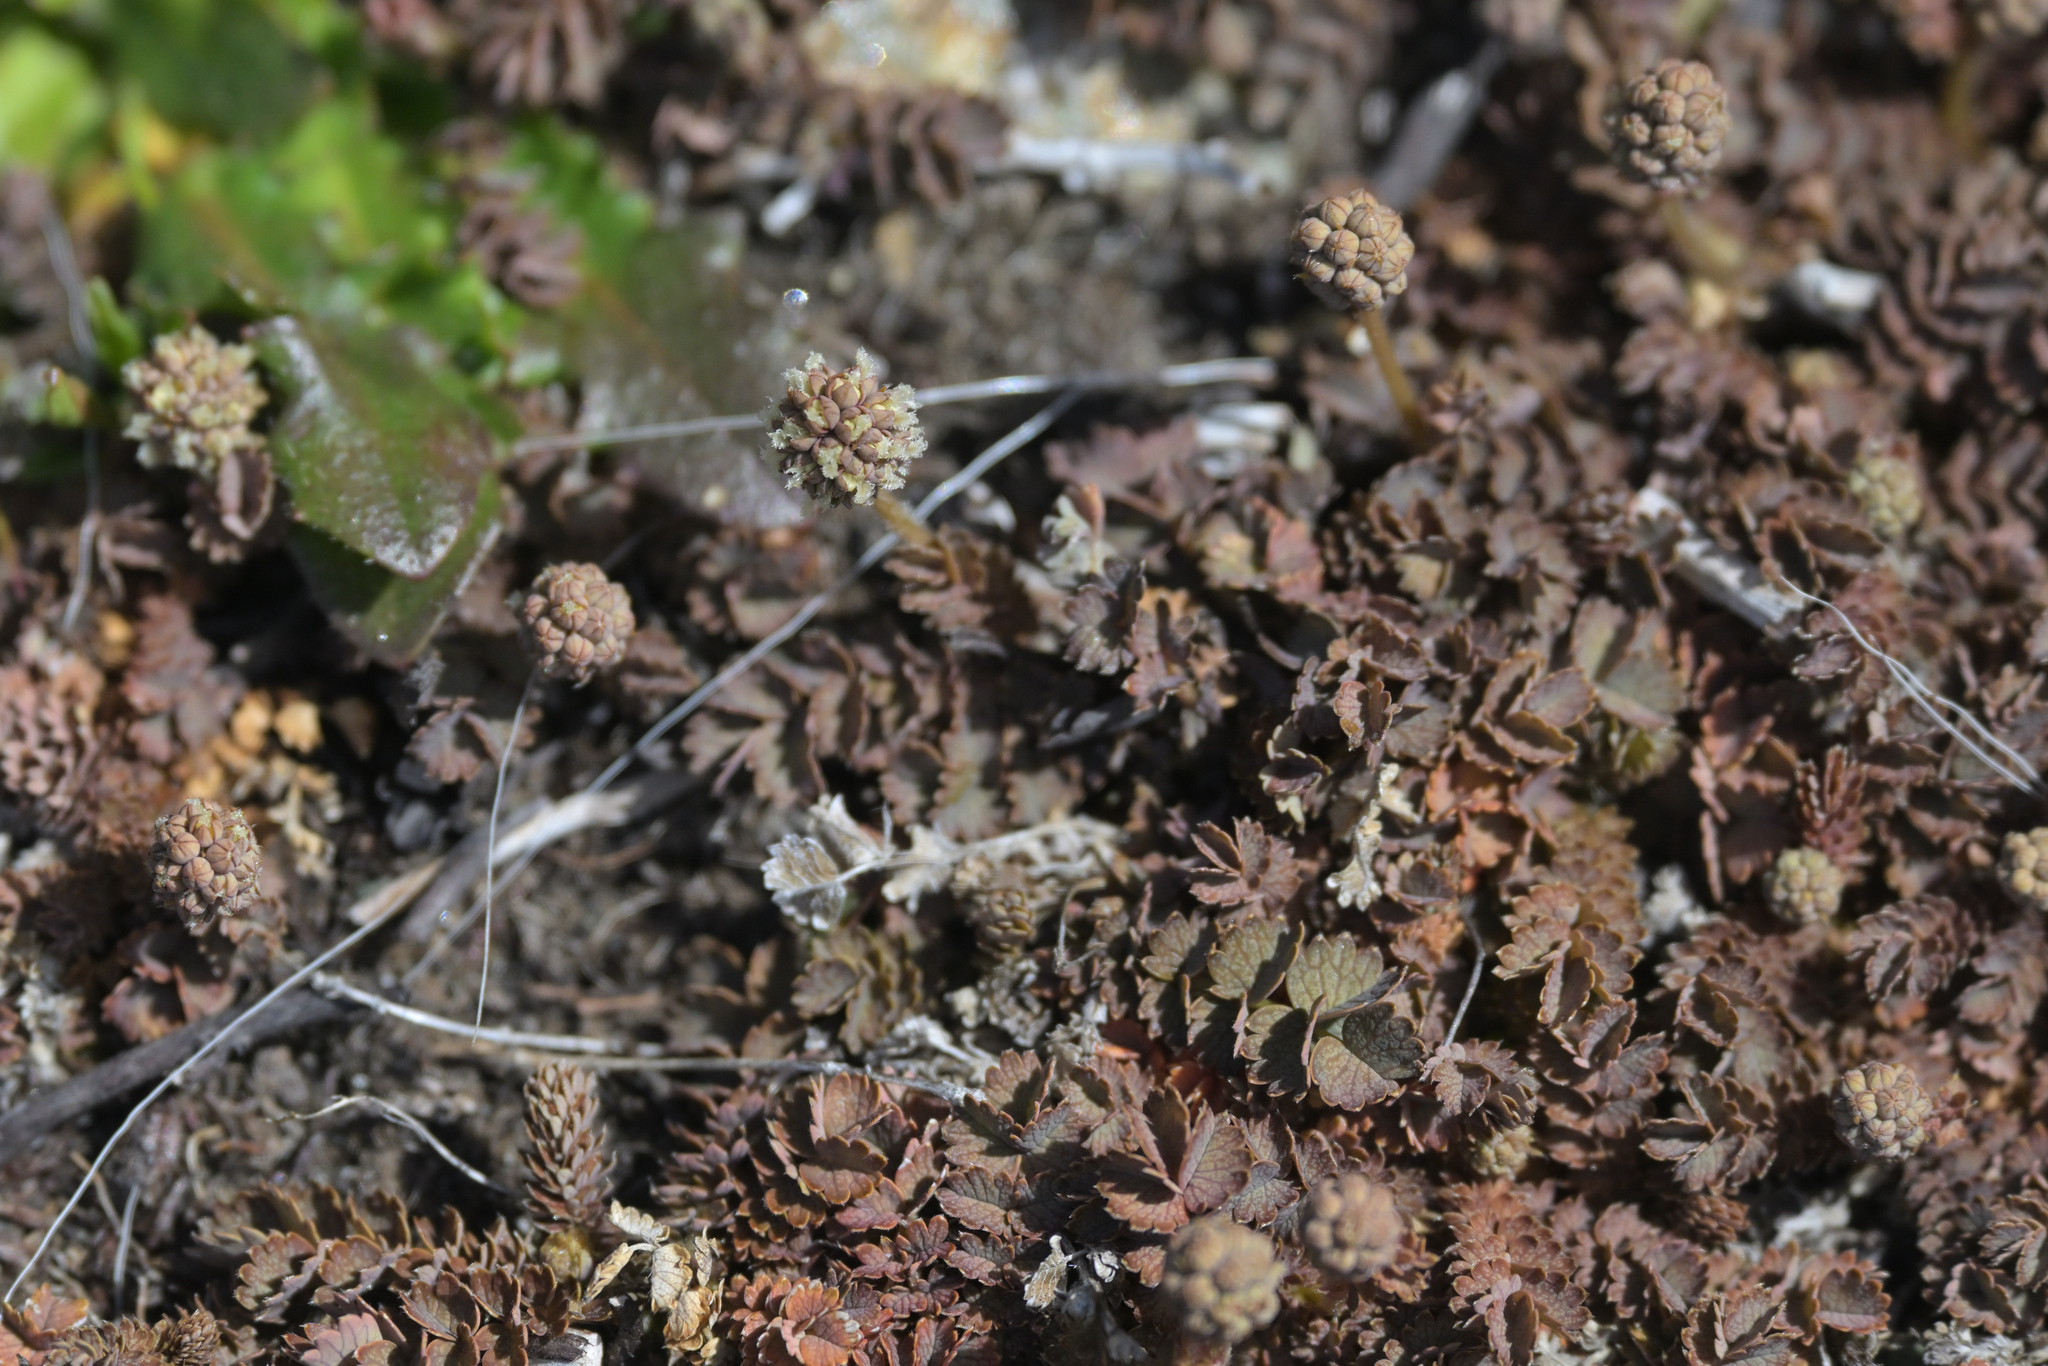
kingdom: Plantae
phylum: Tracheophyta
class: Magnoliopsida
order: Rosales
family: Rosaceae
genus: Acaena
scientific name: Acaena inermis
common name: Spineless acaena
